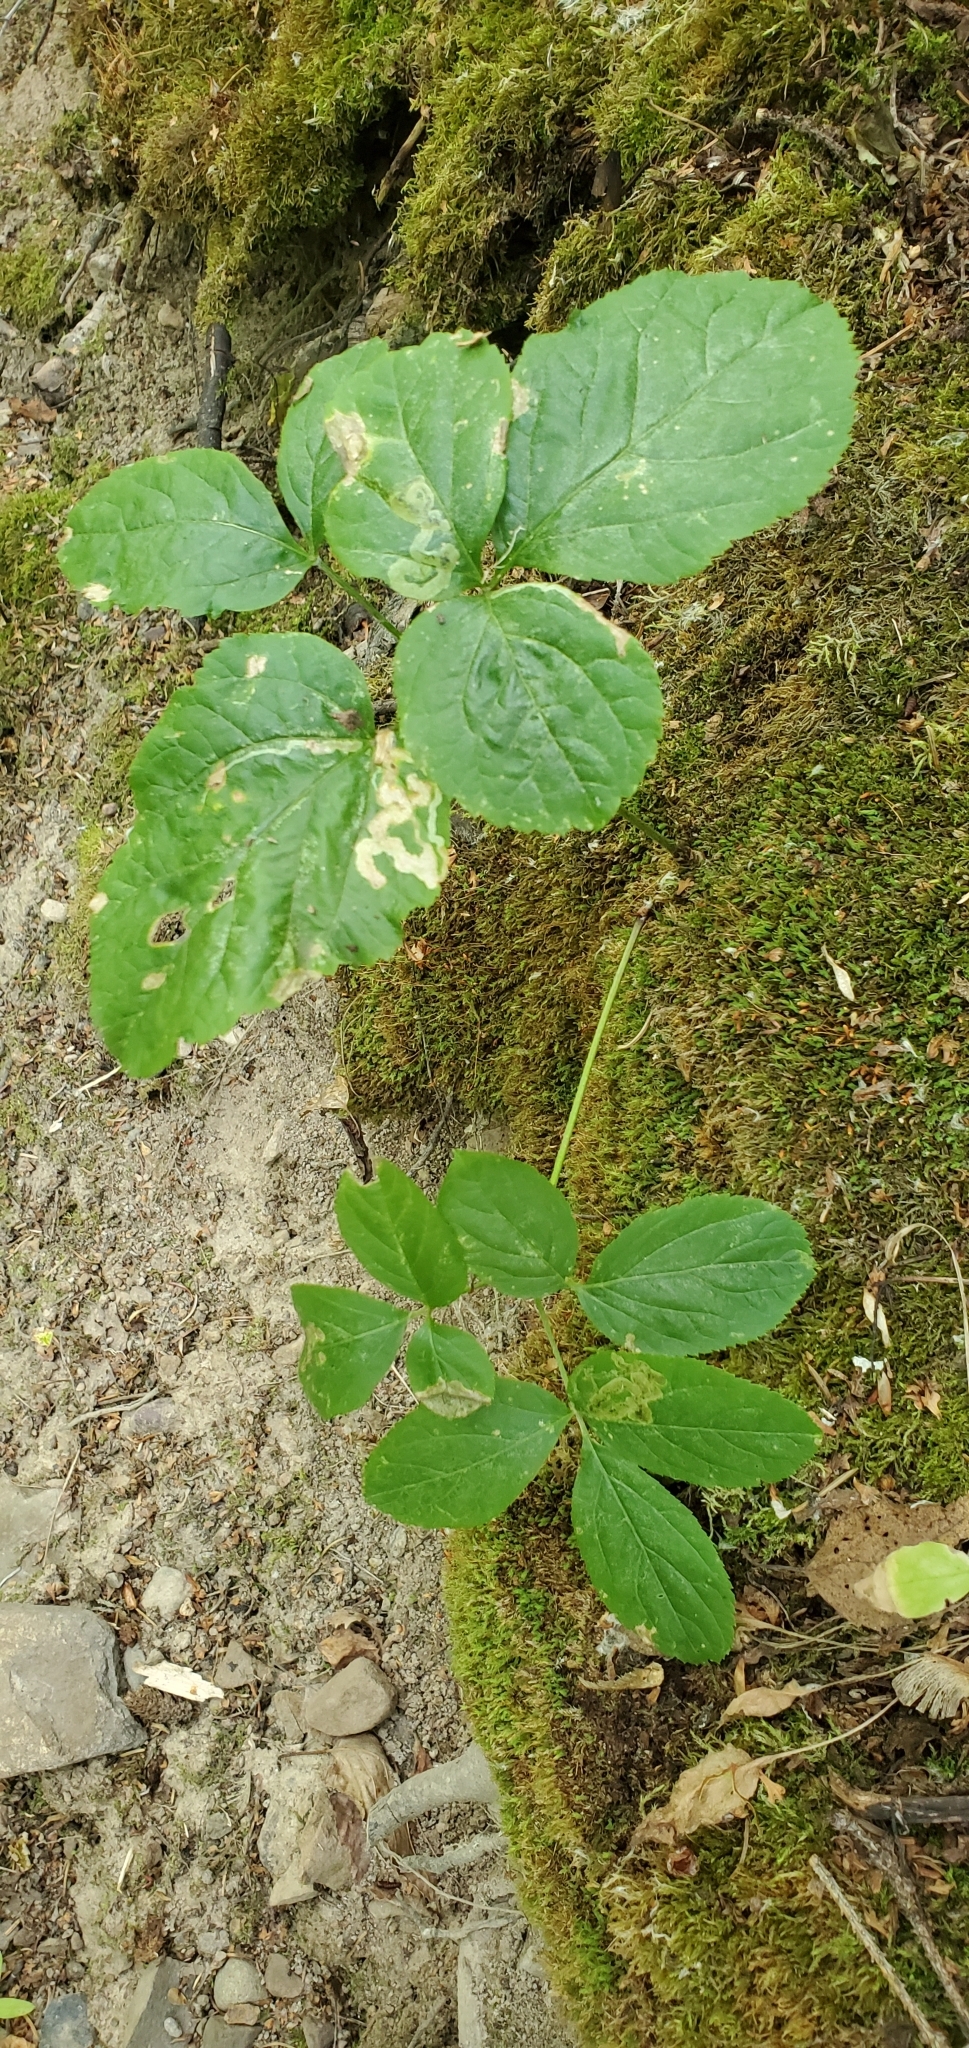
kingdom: Plantae
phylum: Tracheophyta
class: Magnoliopsida
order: Apiales
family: Araliaceae
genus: Aralia
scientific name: Aralia nudicaulis
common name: Wild sarsaparilla
